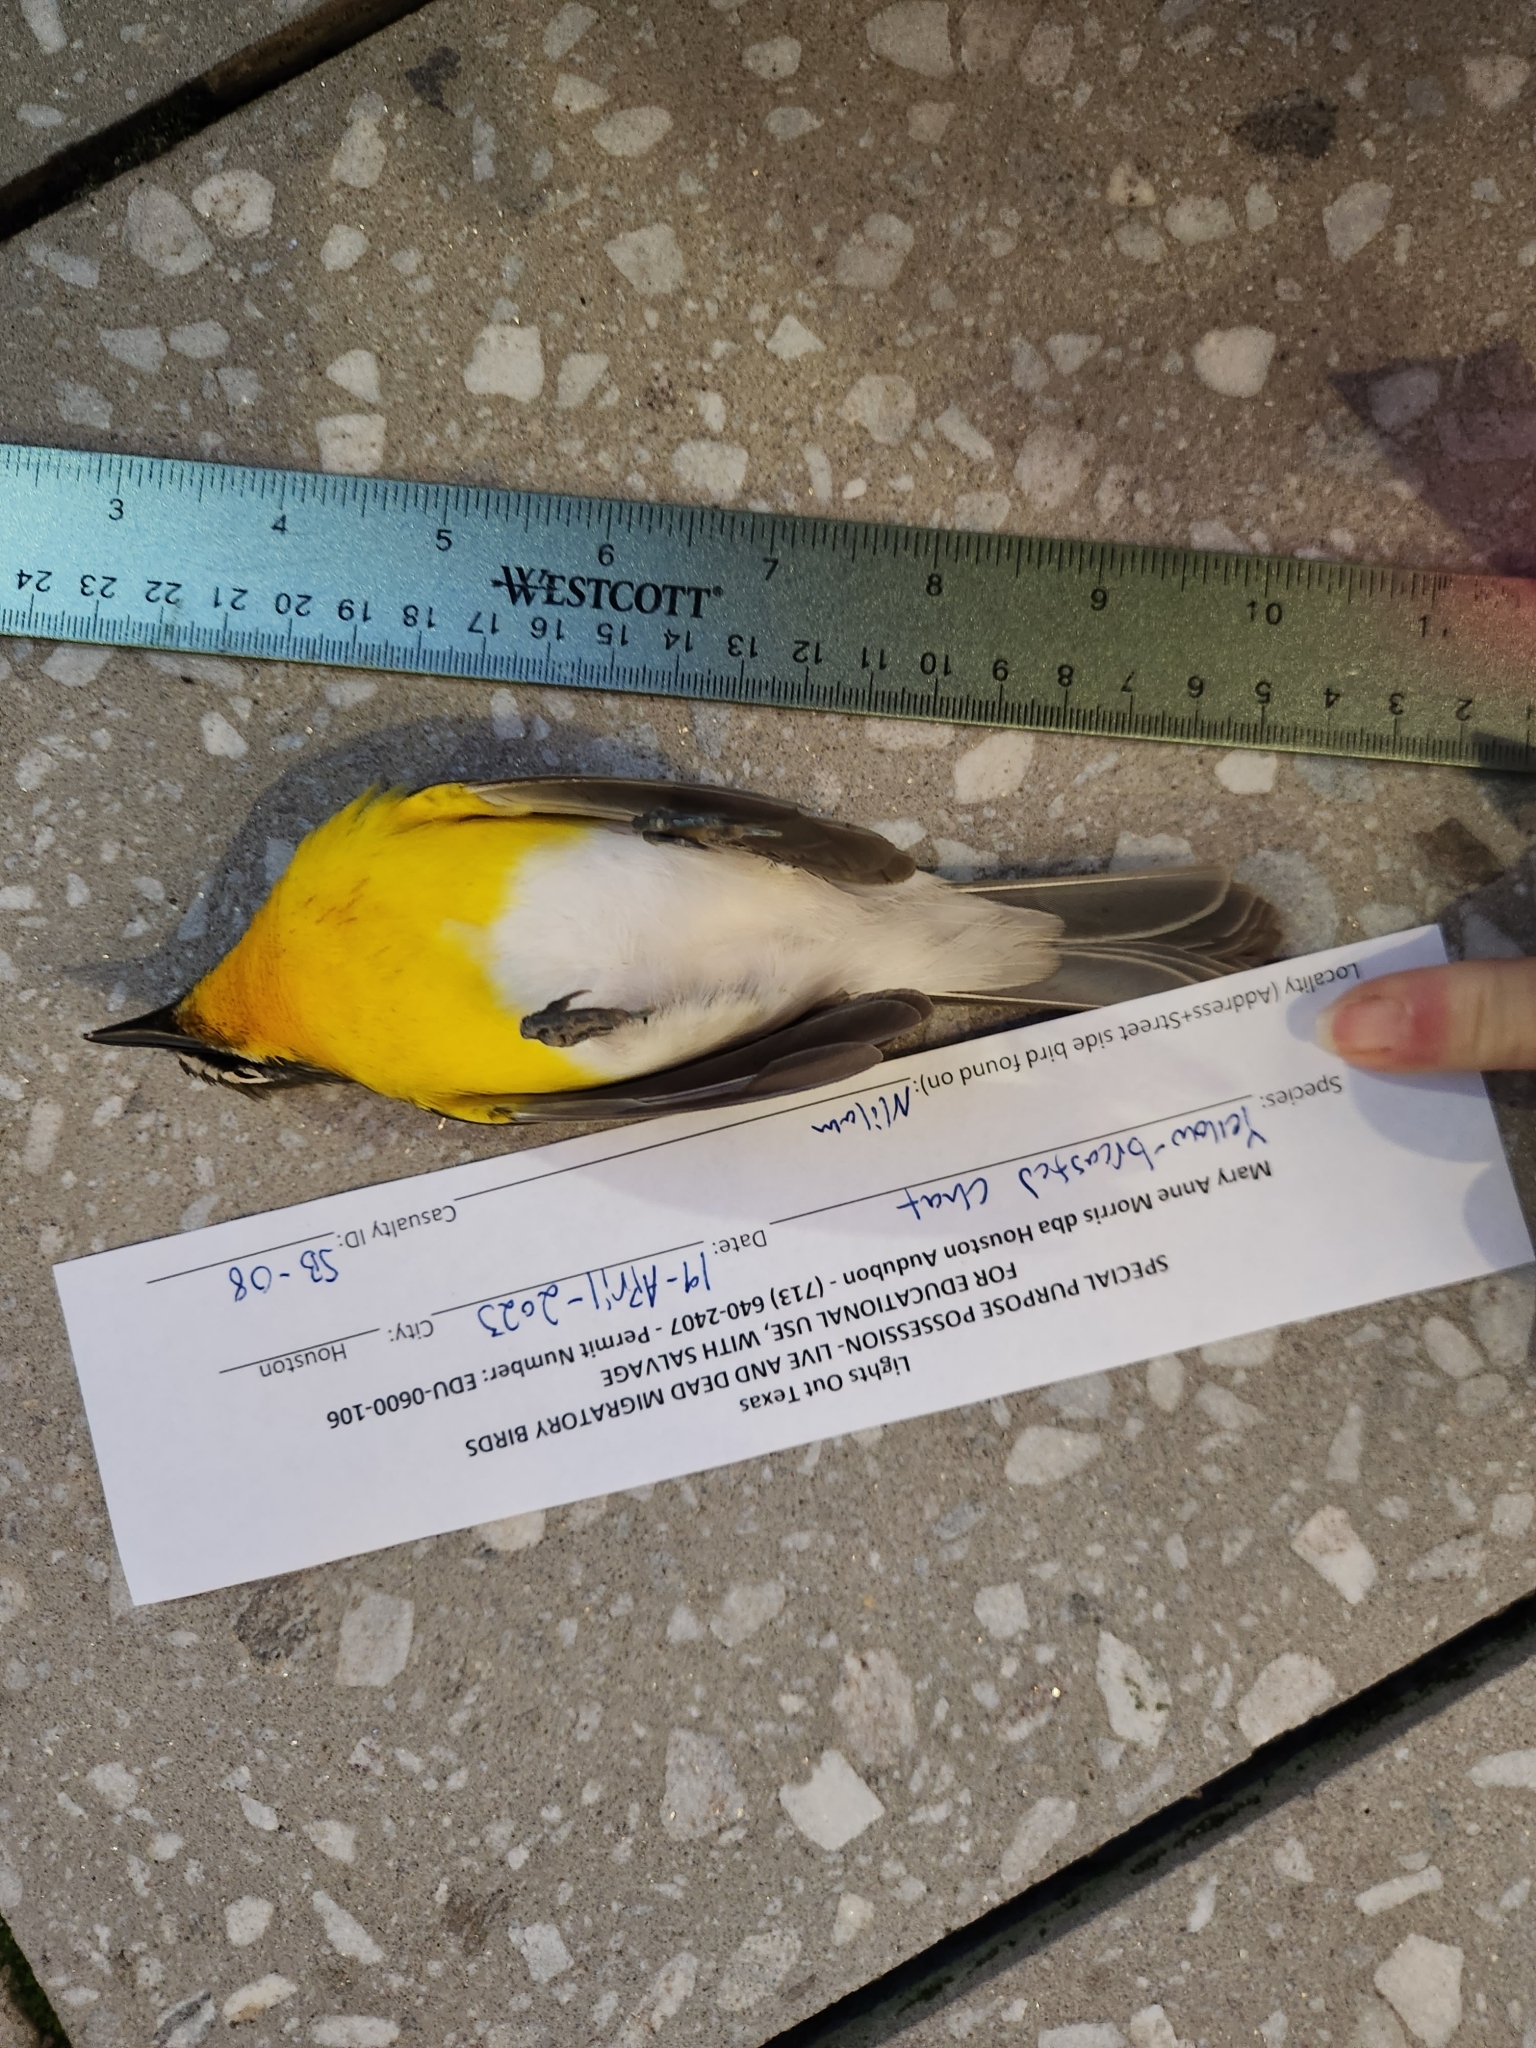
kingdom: Animalia
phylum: Chordata
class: Aves
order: Passeriformes
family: Parulidae
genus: Icteria
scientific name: Icteria virens
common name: Yellow-breasted chat
